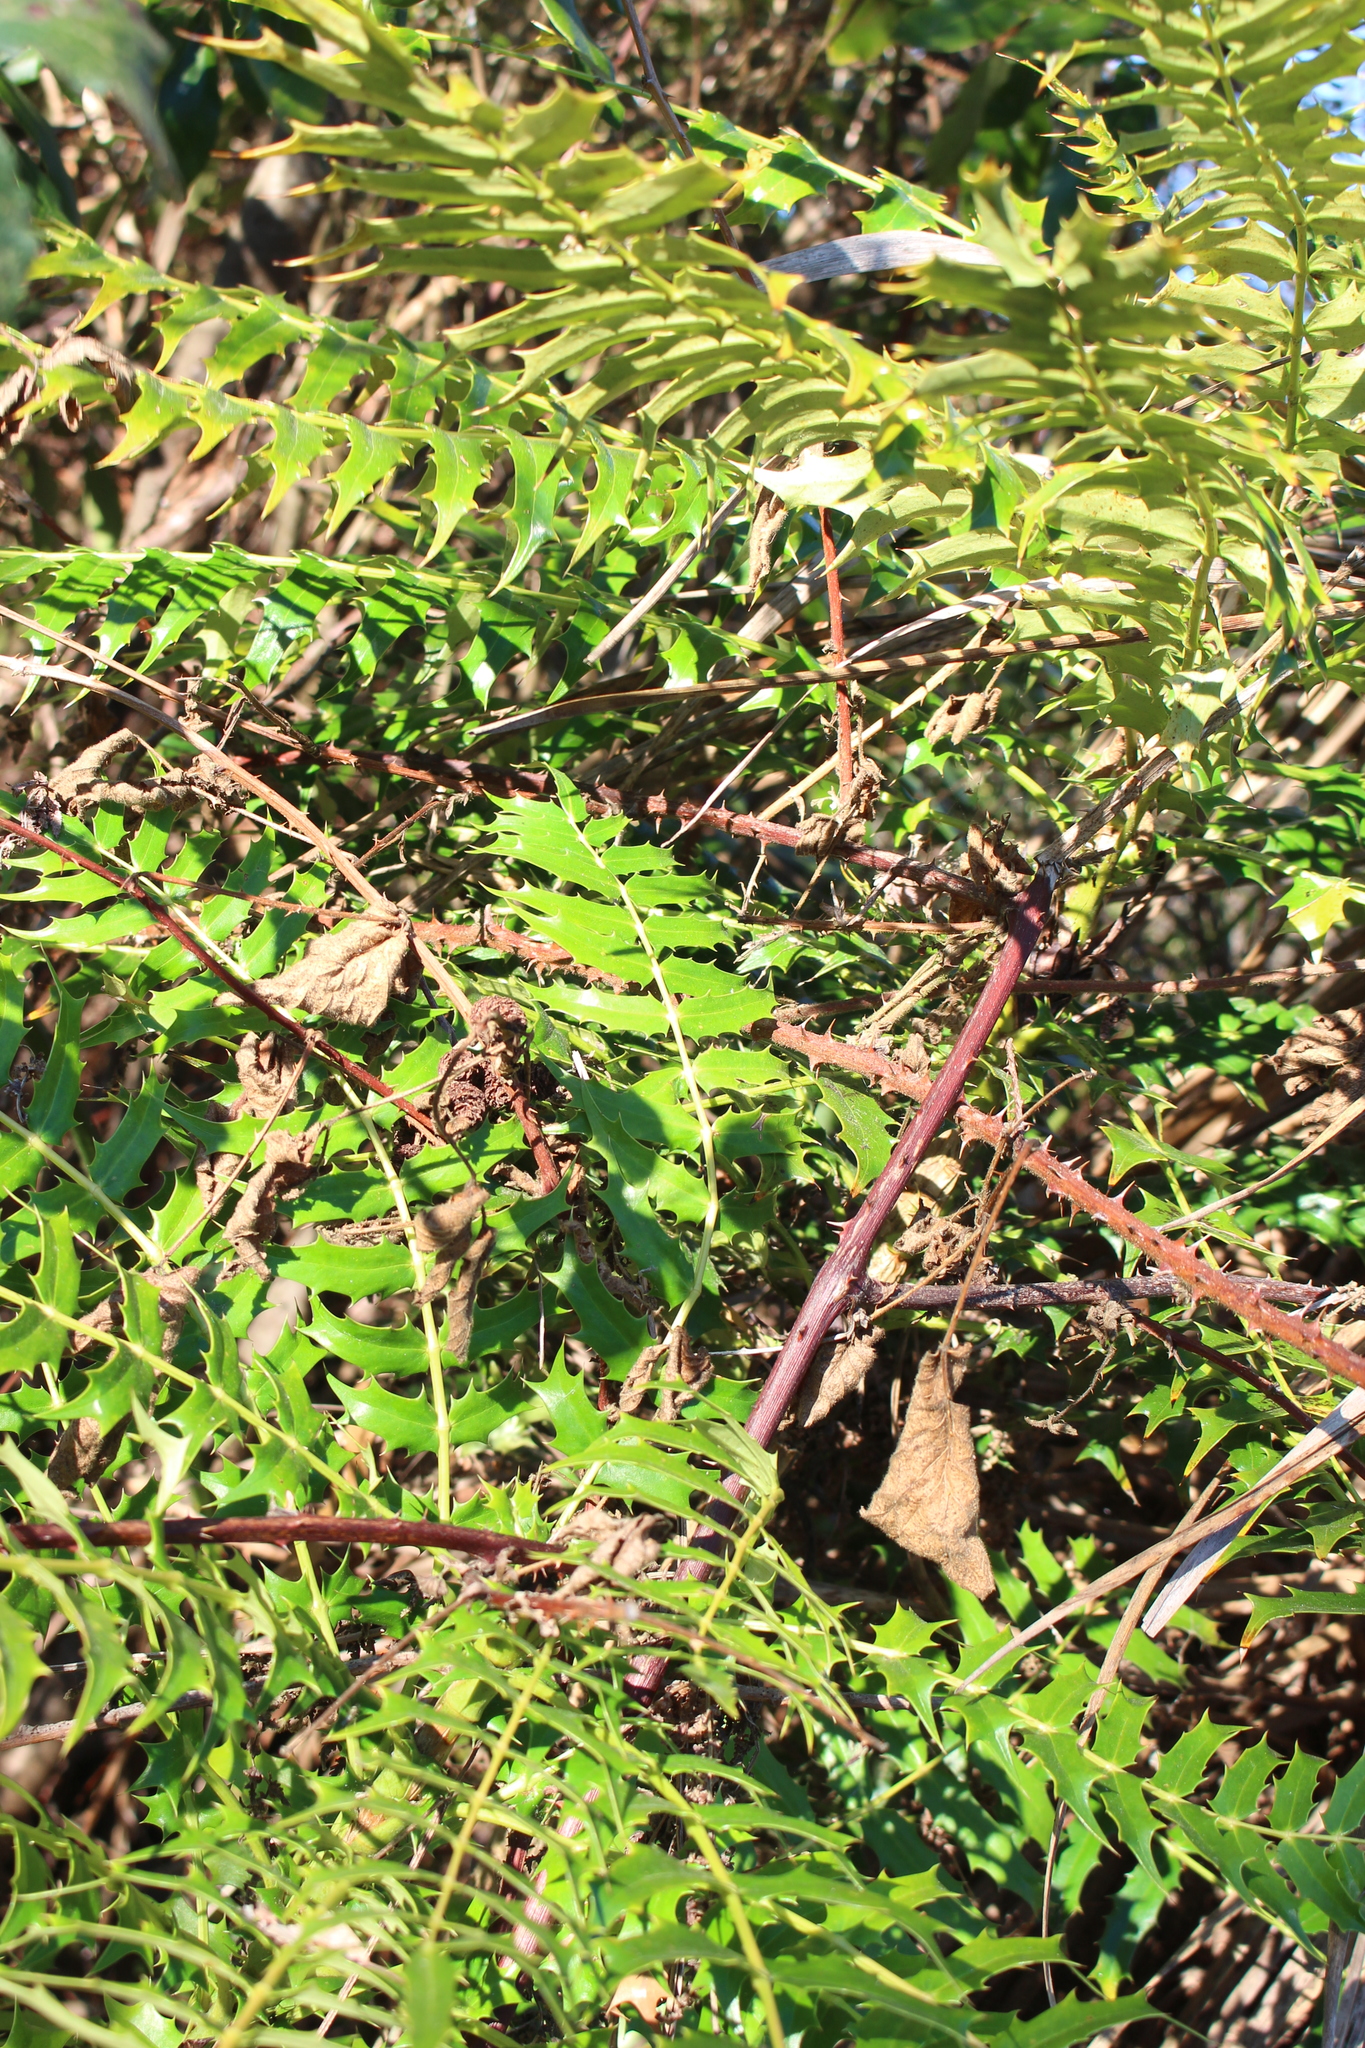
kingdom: Plantae
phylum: Tracheophyta
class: Magnoliopsida
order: Ranunculales
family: Berberidaceae
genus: Mahonia
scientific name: Mahonia oiwakensis
